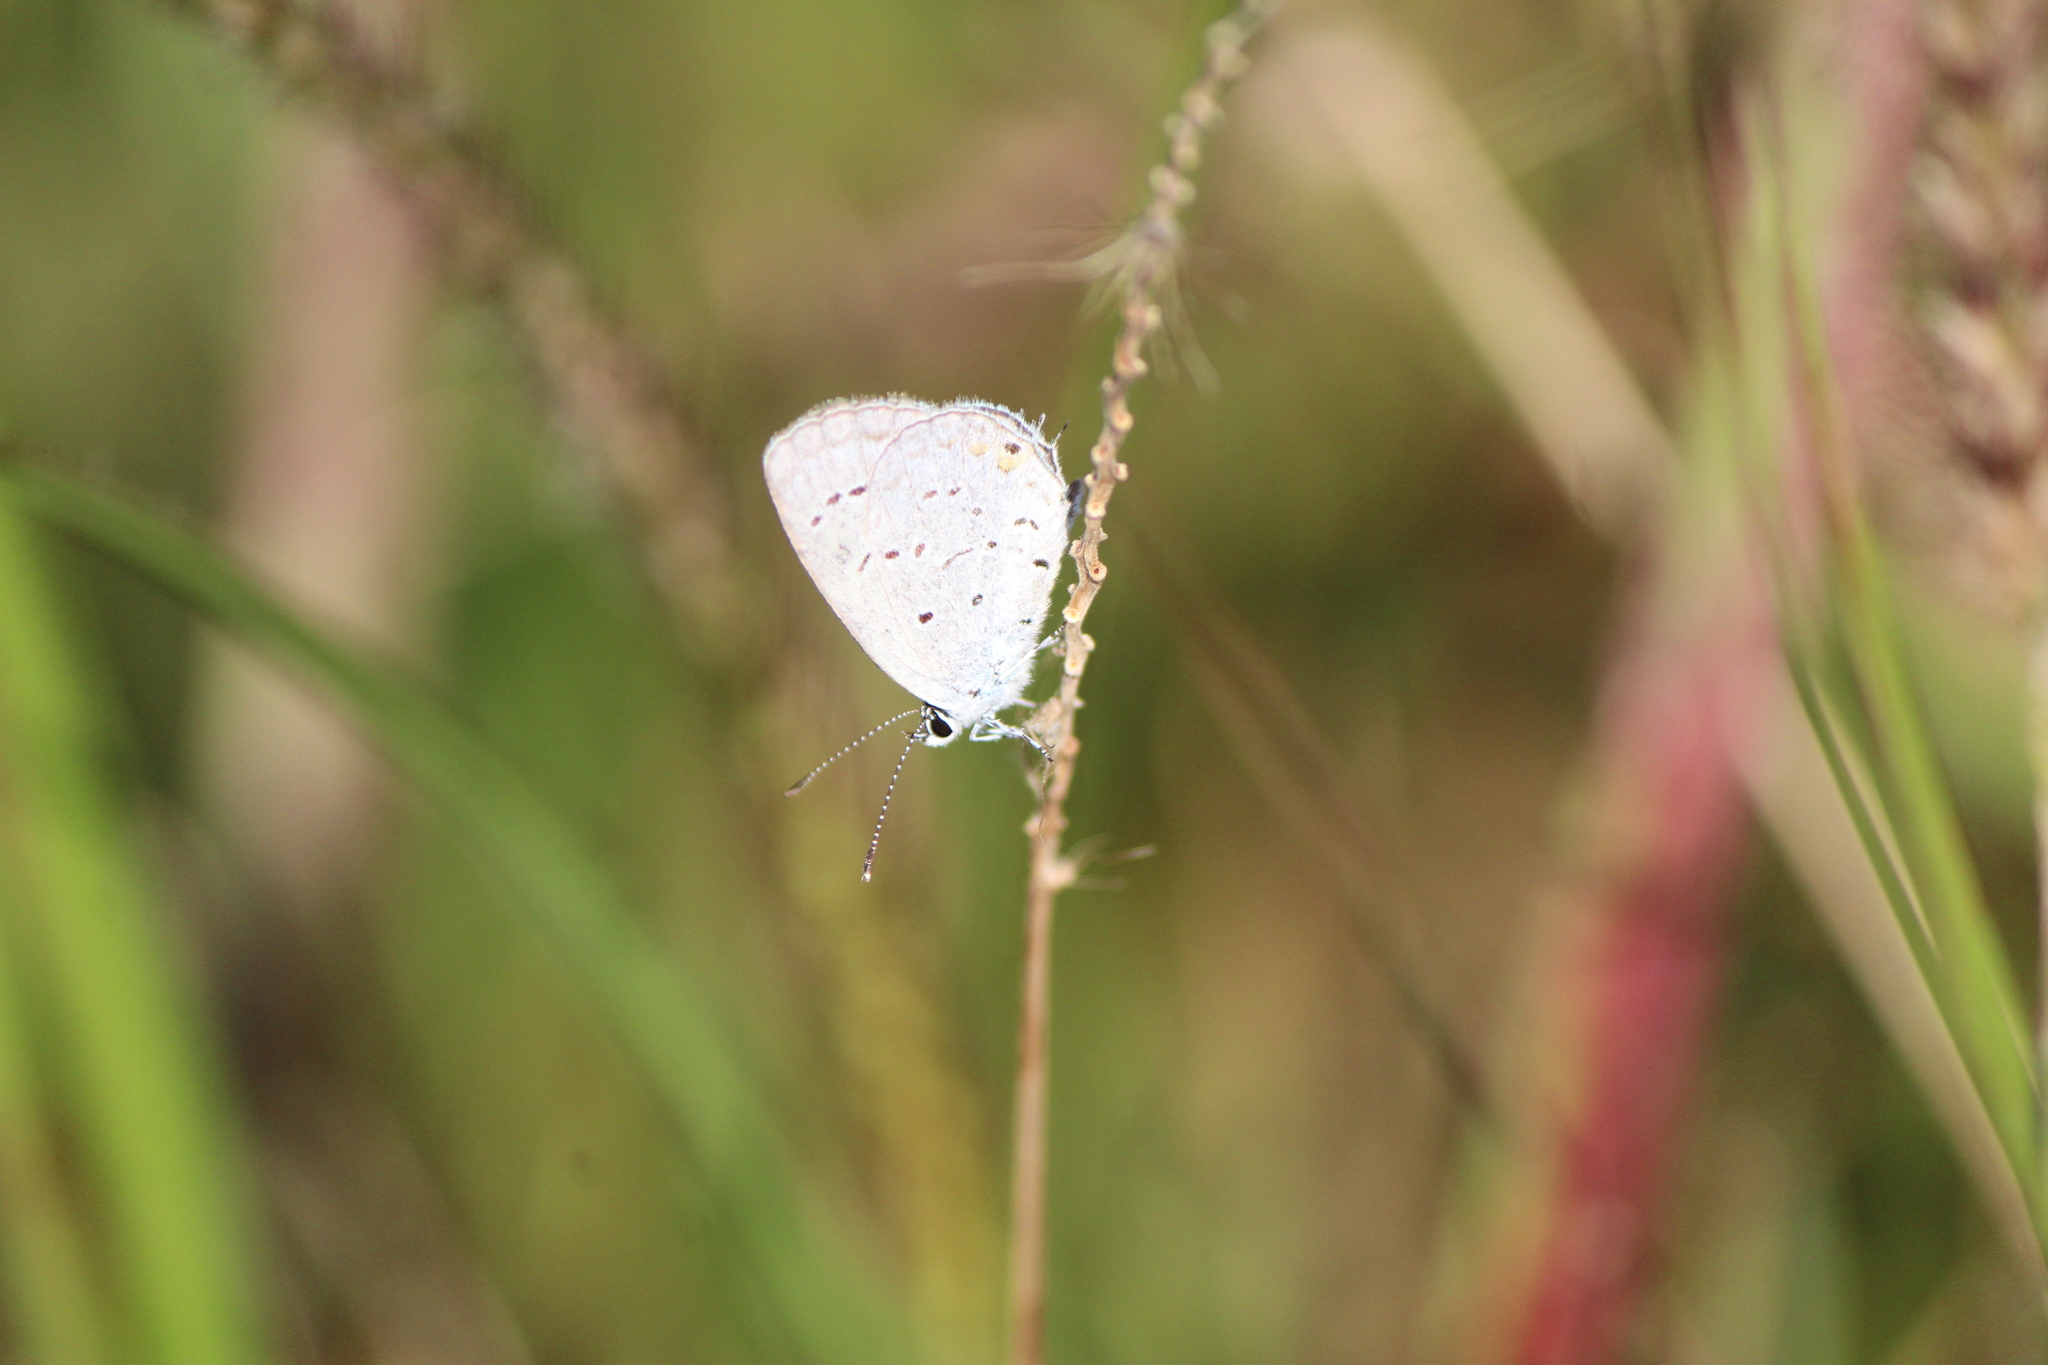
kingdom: Animalia
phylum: Arthropoda
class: Insecta
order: Lepidoptera
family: Lycaenidae
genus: Elkalyce
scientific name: Elkalyce comyntas
